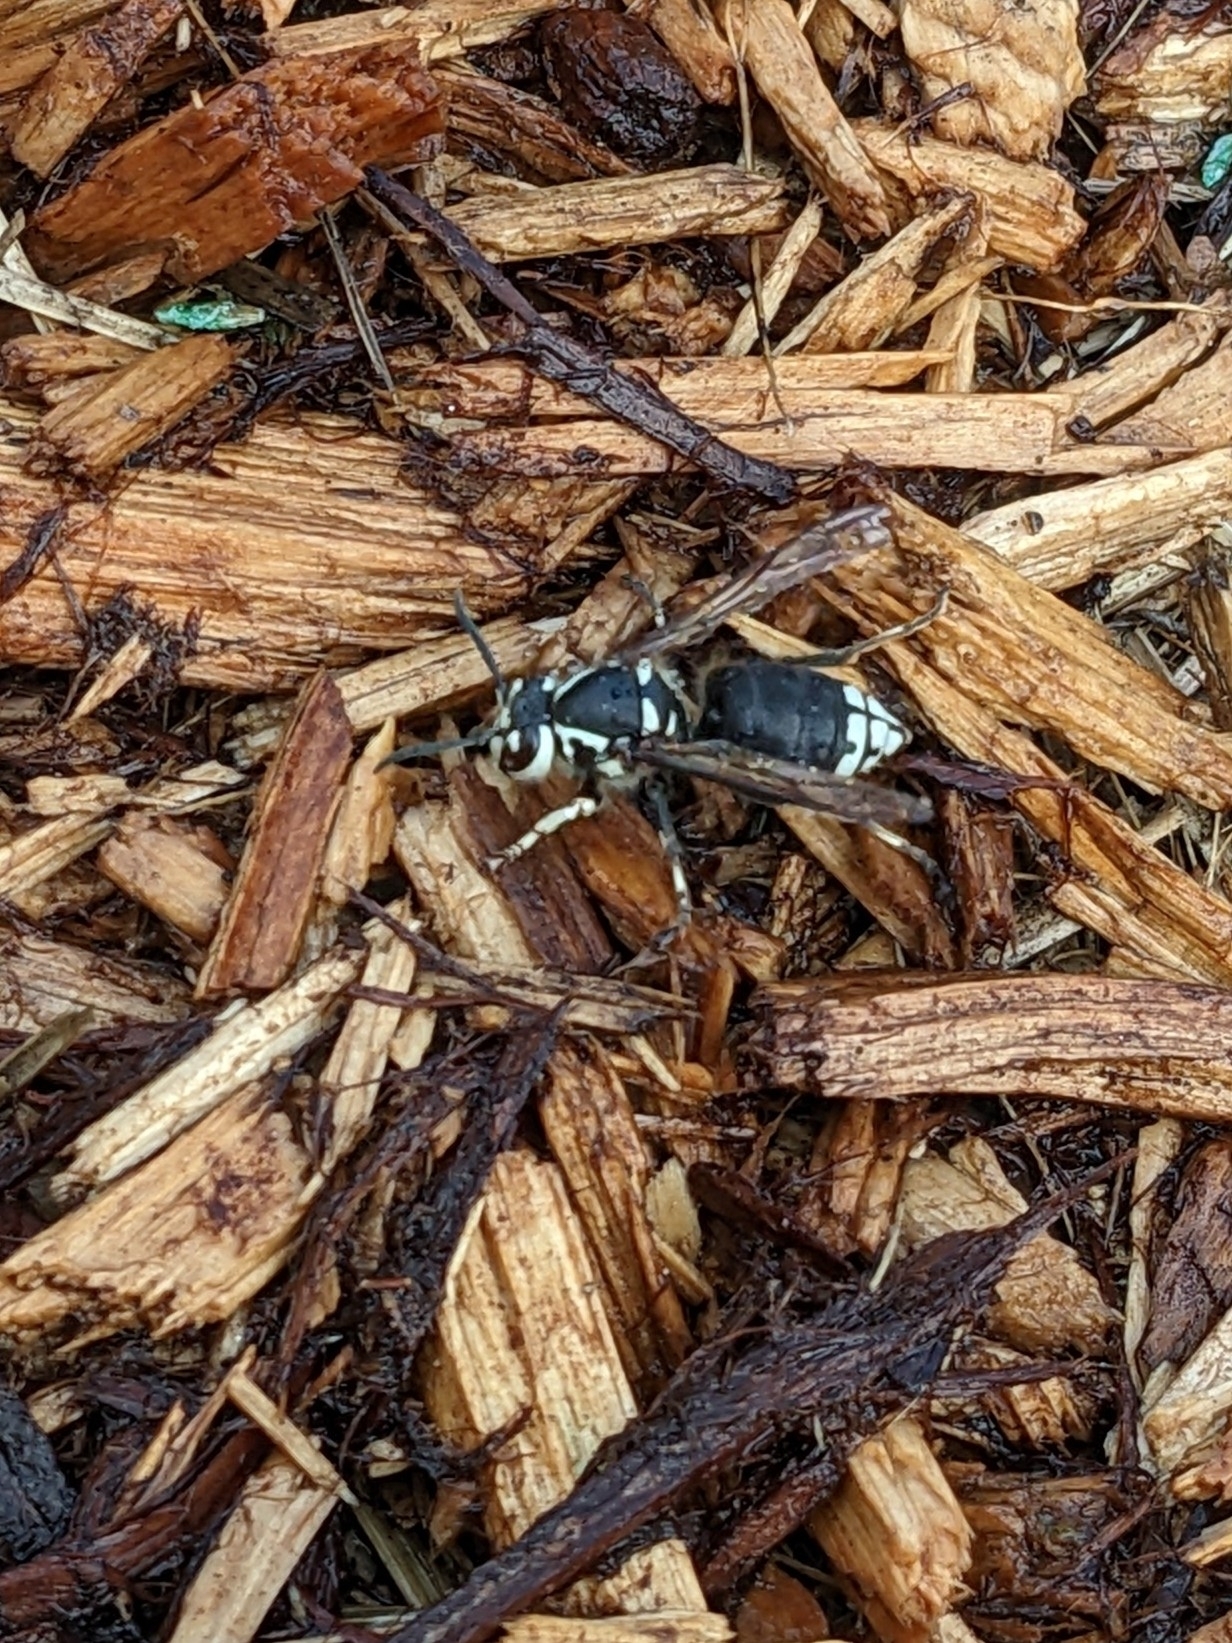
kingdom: Animalia
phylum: Arthropoda
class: Insecta
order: Hymenoptera
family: Vespidae
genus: Dolichovespula
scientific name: Dolichovespula maculata
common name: Bald-faced hornet
